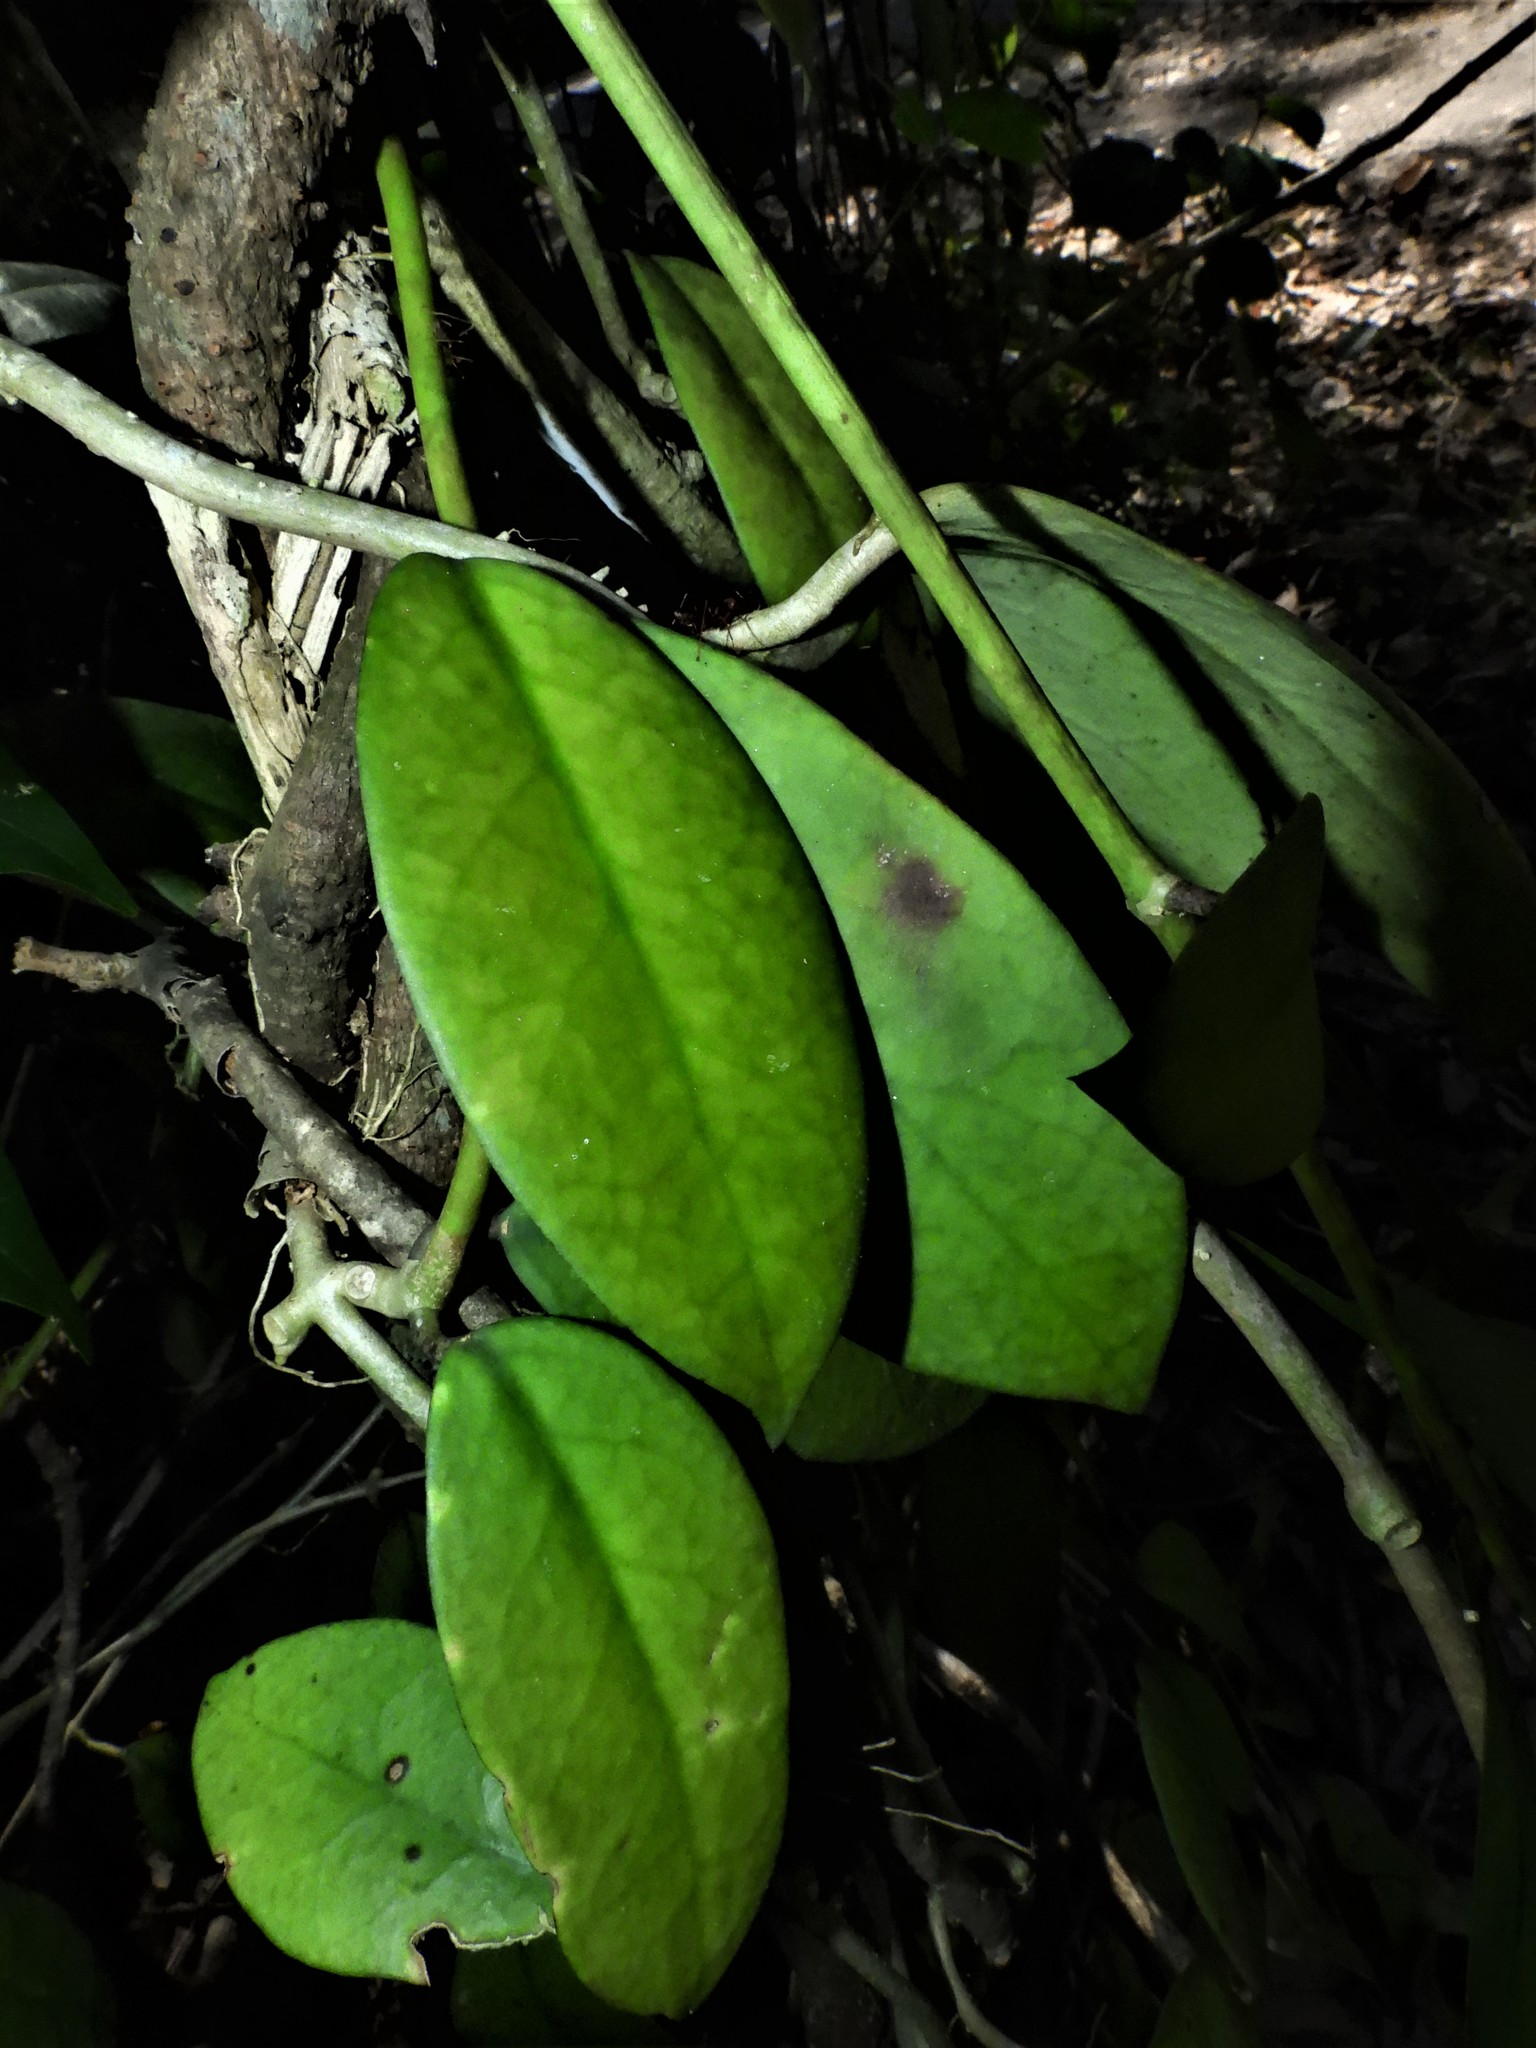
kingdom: Plantae
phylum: Tracheophyta
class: Magnoliopsida
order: Gentianales
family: Apocynaceae
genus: Hoya
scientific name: Hoya diversifolia
